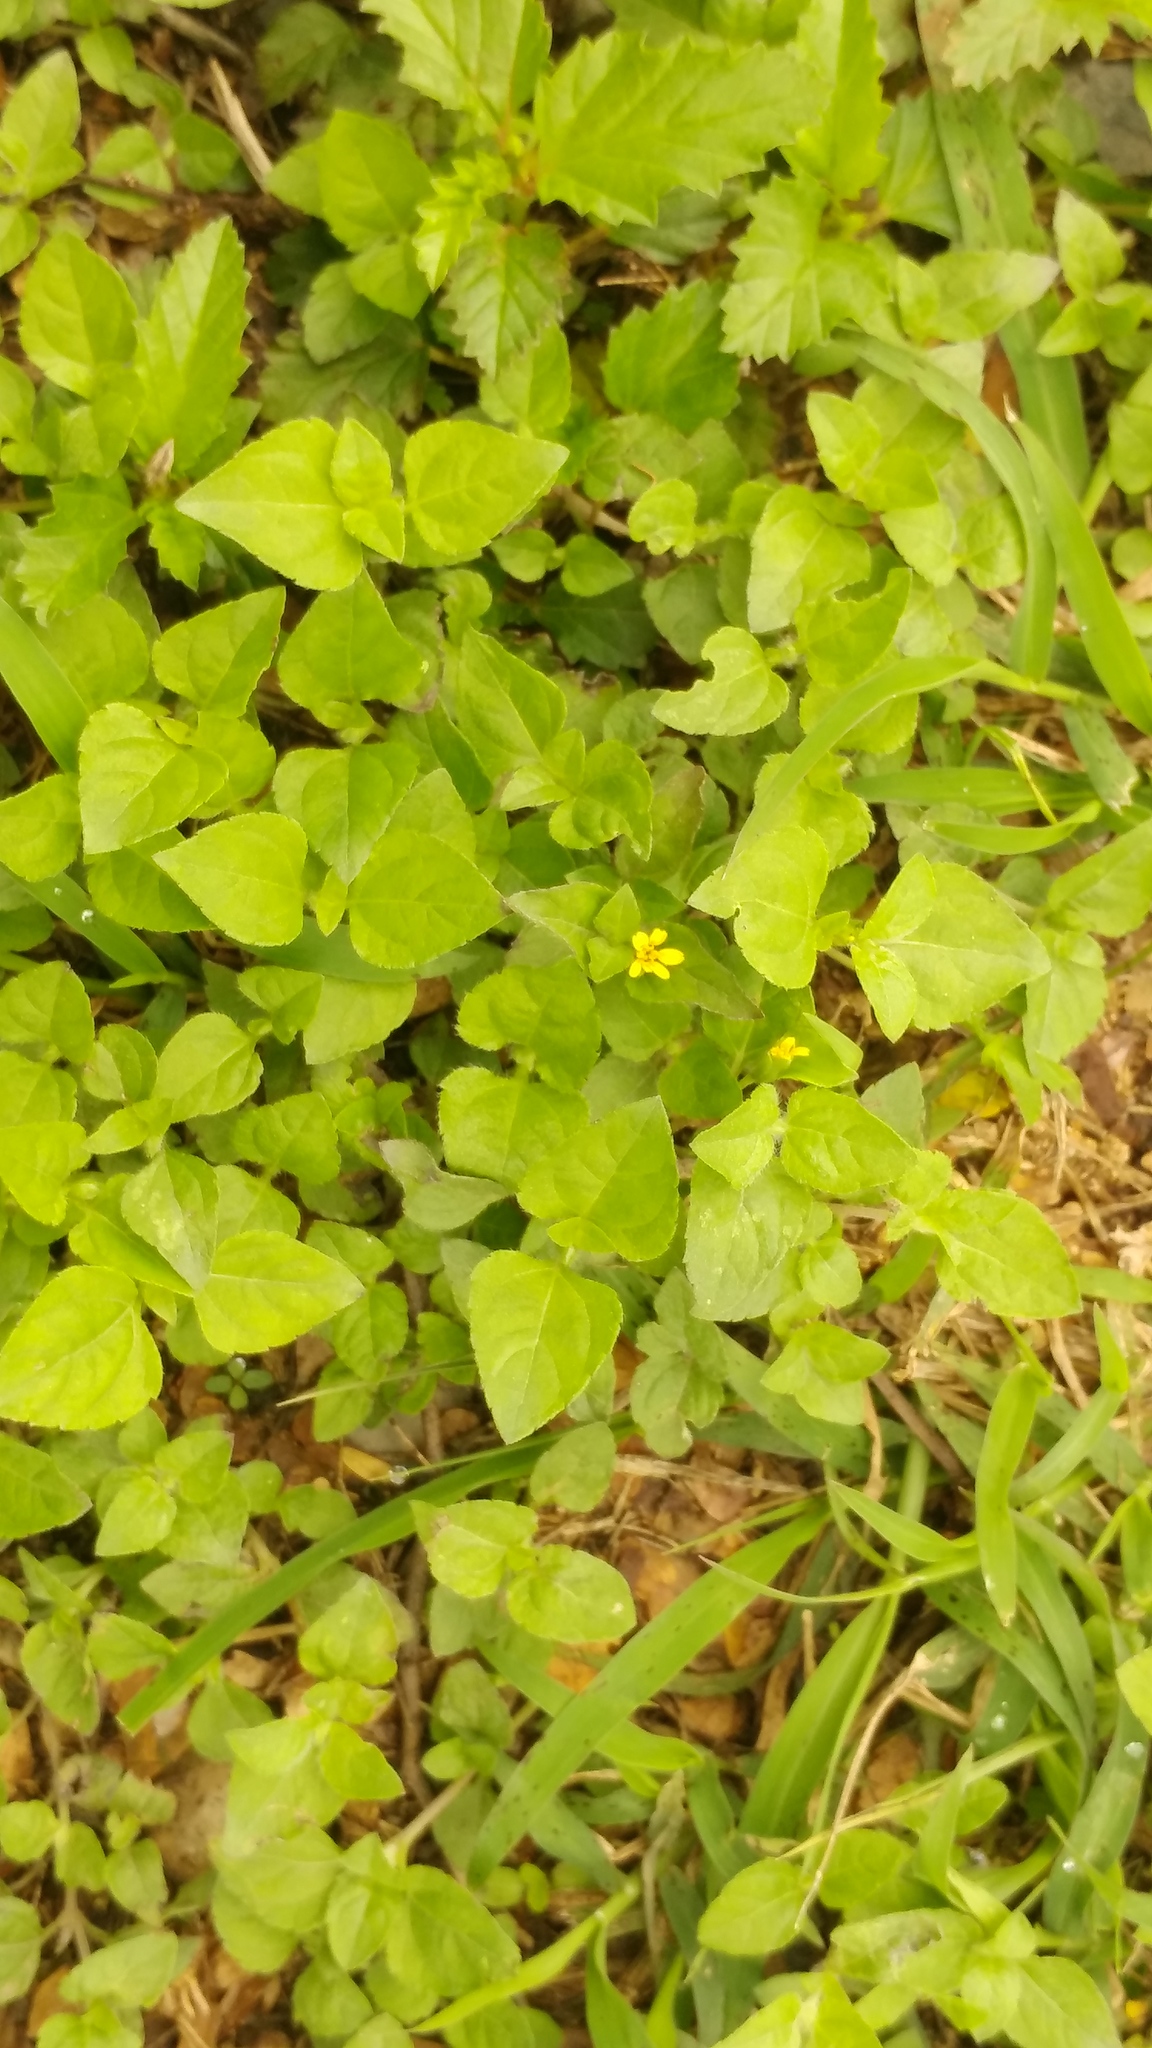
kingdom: Plantae
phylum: Tracheophyta
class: Magnoliopsida
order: Asterales
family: Asteraceae
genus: Calyptocarpus
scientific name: Calyptocarpus vialis
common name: Straggler daisy
